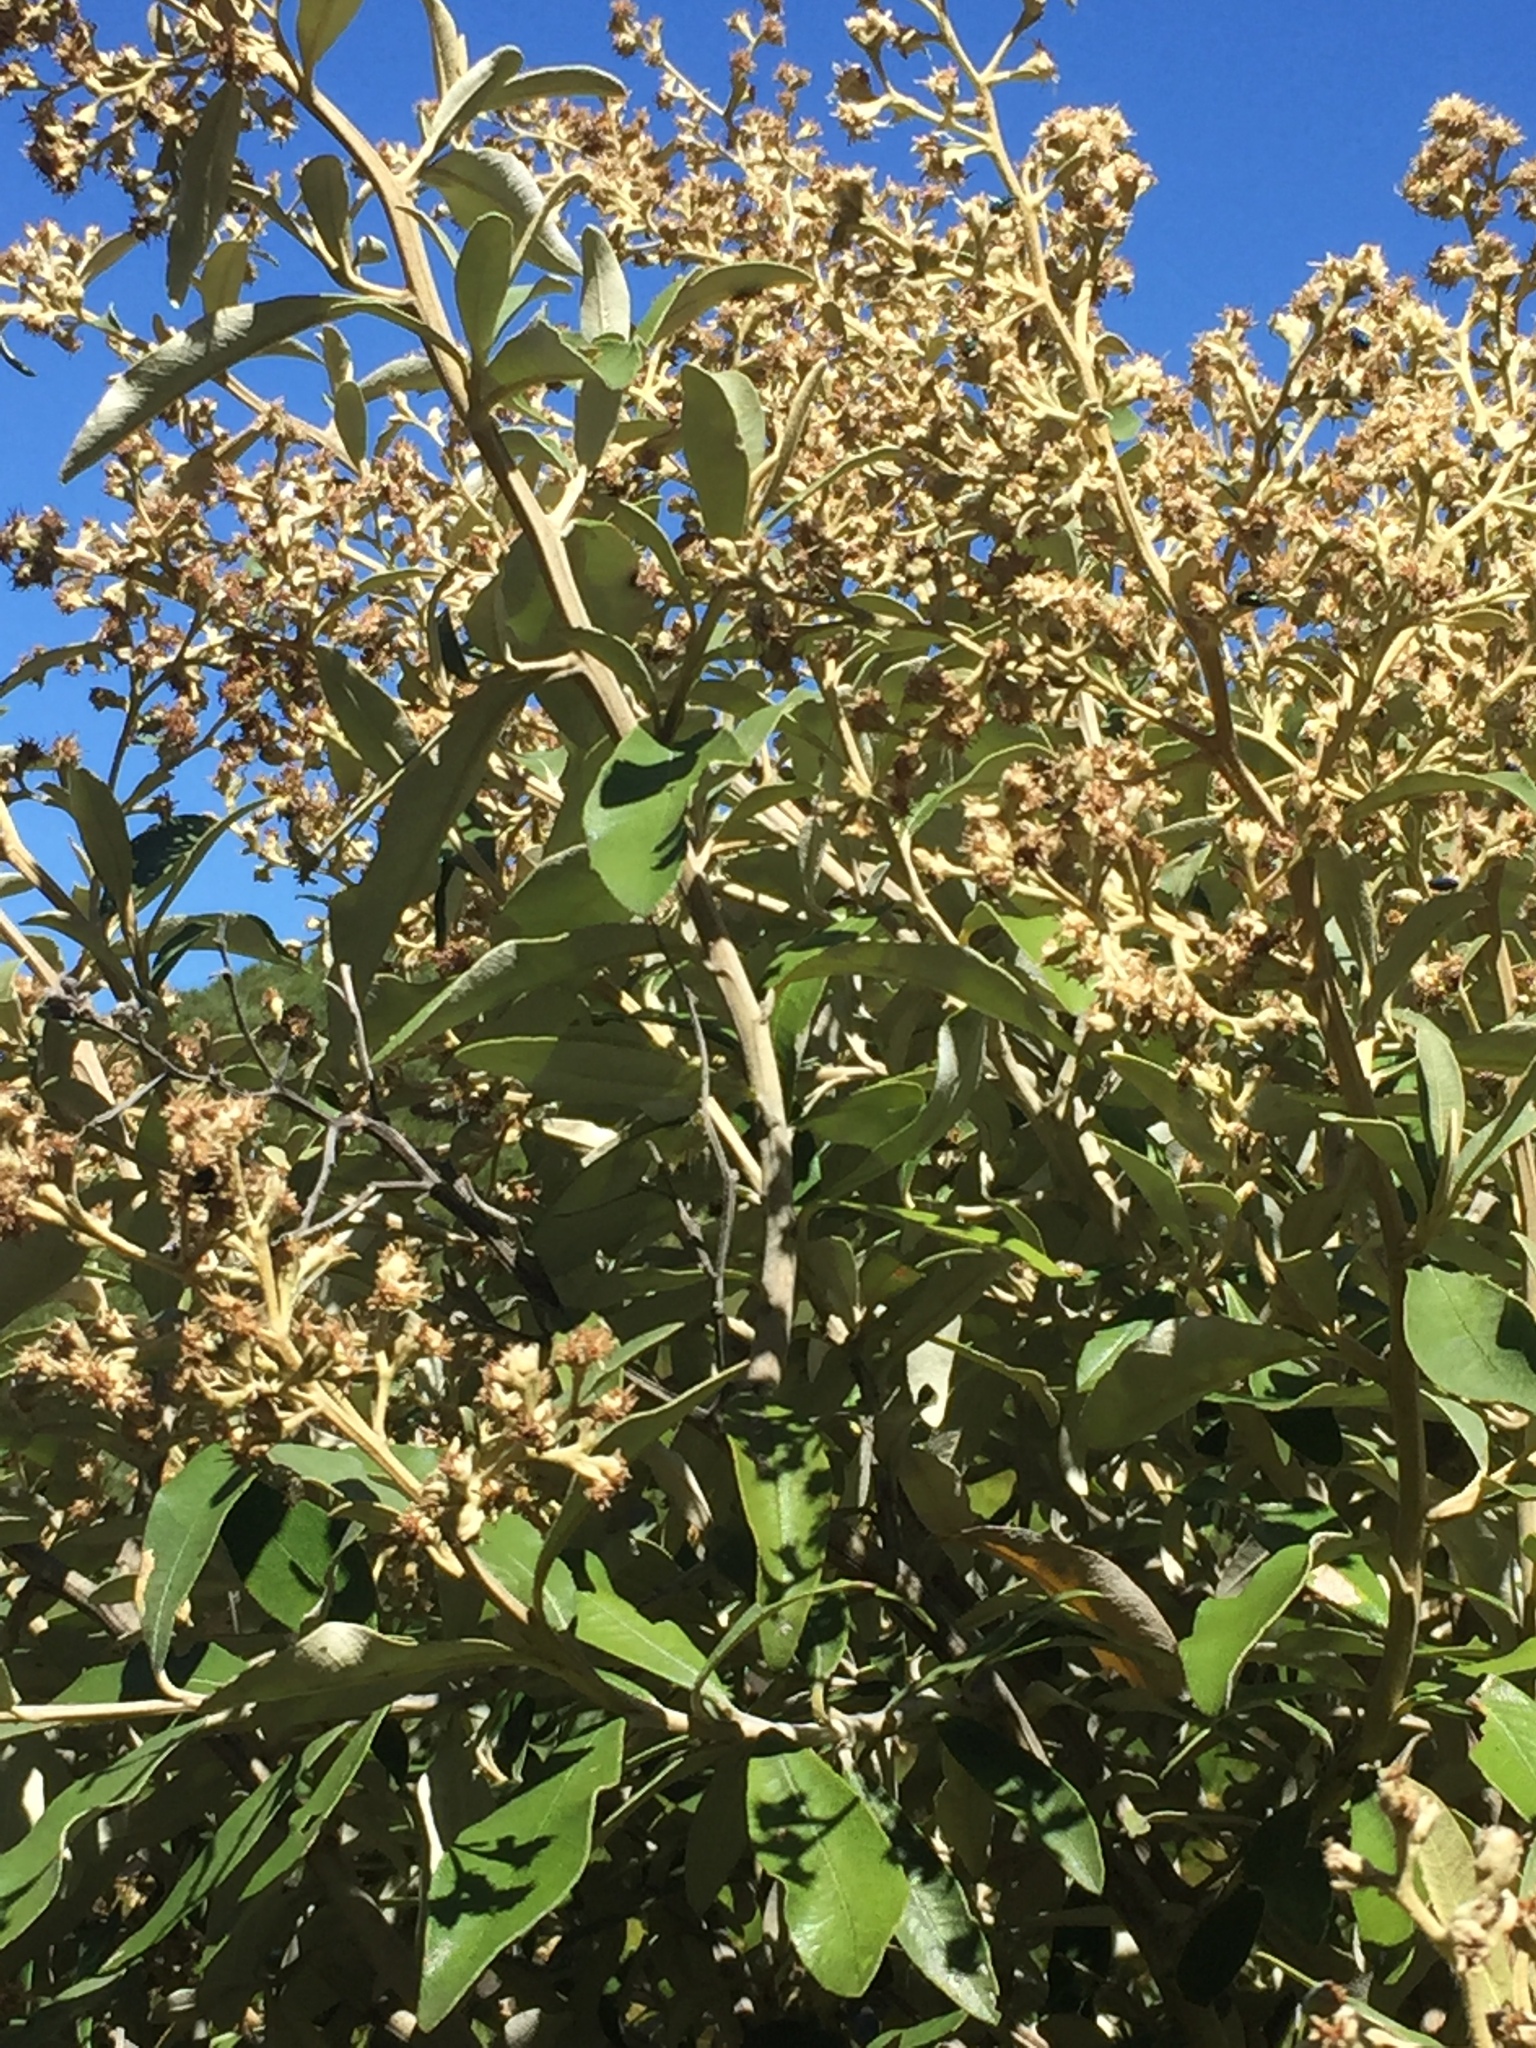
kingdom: Plantae
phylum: Tracheophyta
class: Magnoliopsida
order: Asterales
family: Asteraceae
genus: Tarchonanthus
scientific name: Tarchonanthus littoralis
